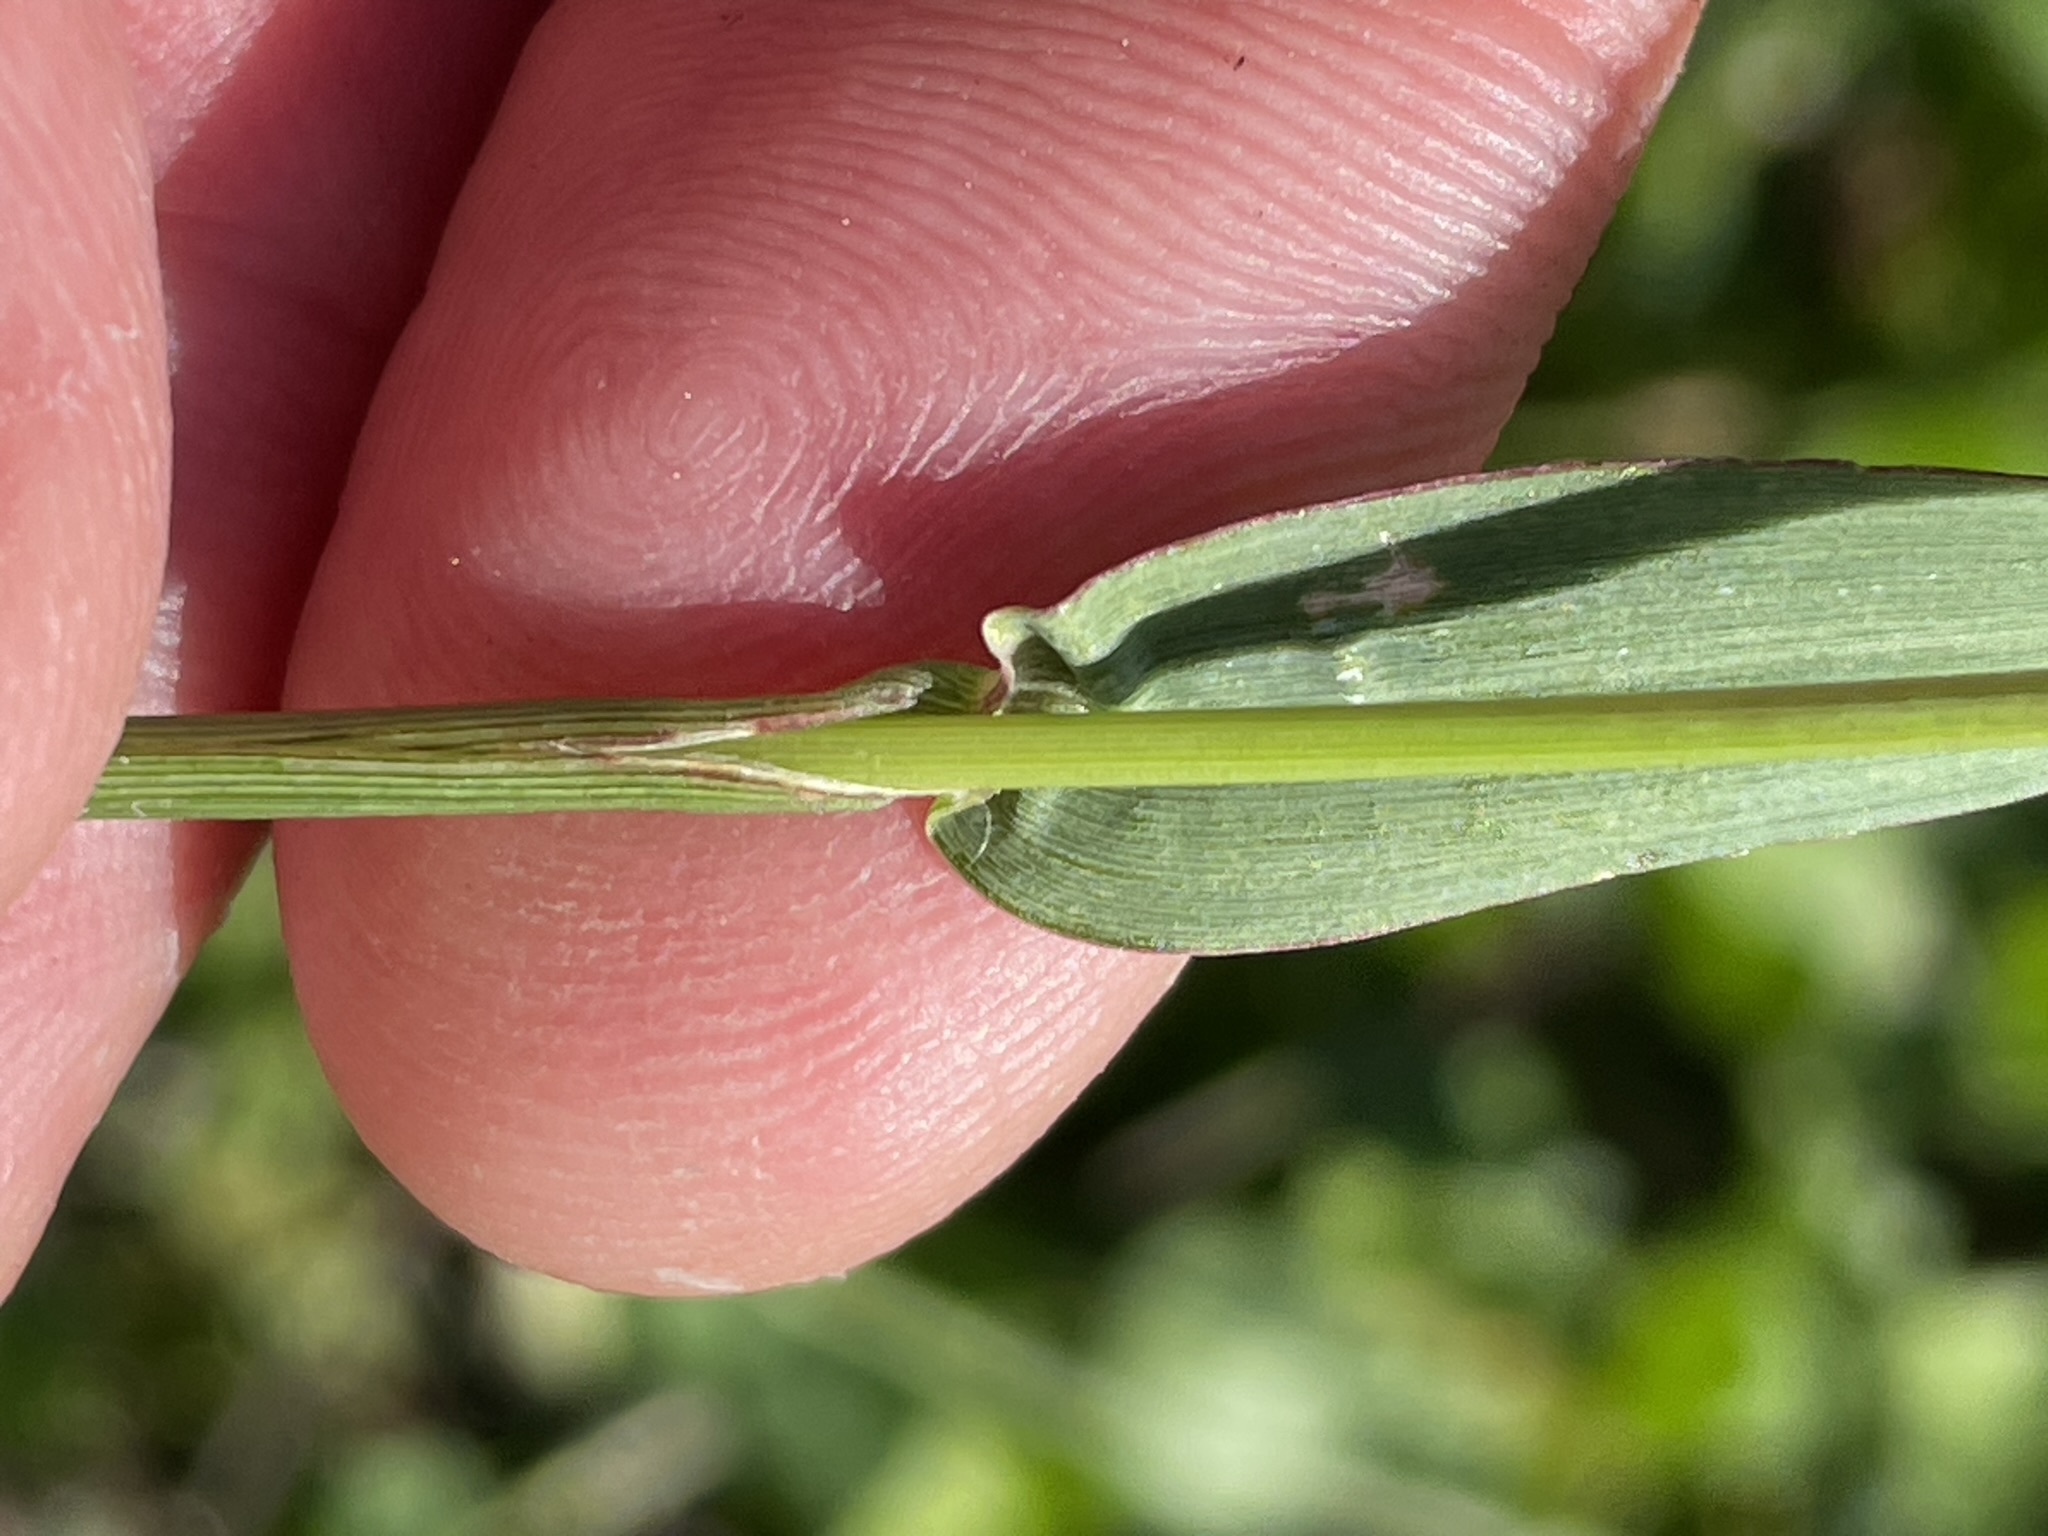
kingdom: Plantae
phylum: Tracheophyta
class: Liliopsida
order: Poales
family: Poaceae
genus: Setaria
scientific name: Setaria pumila
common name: Yellow bristle-grass
